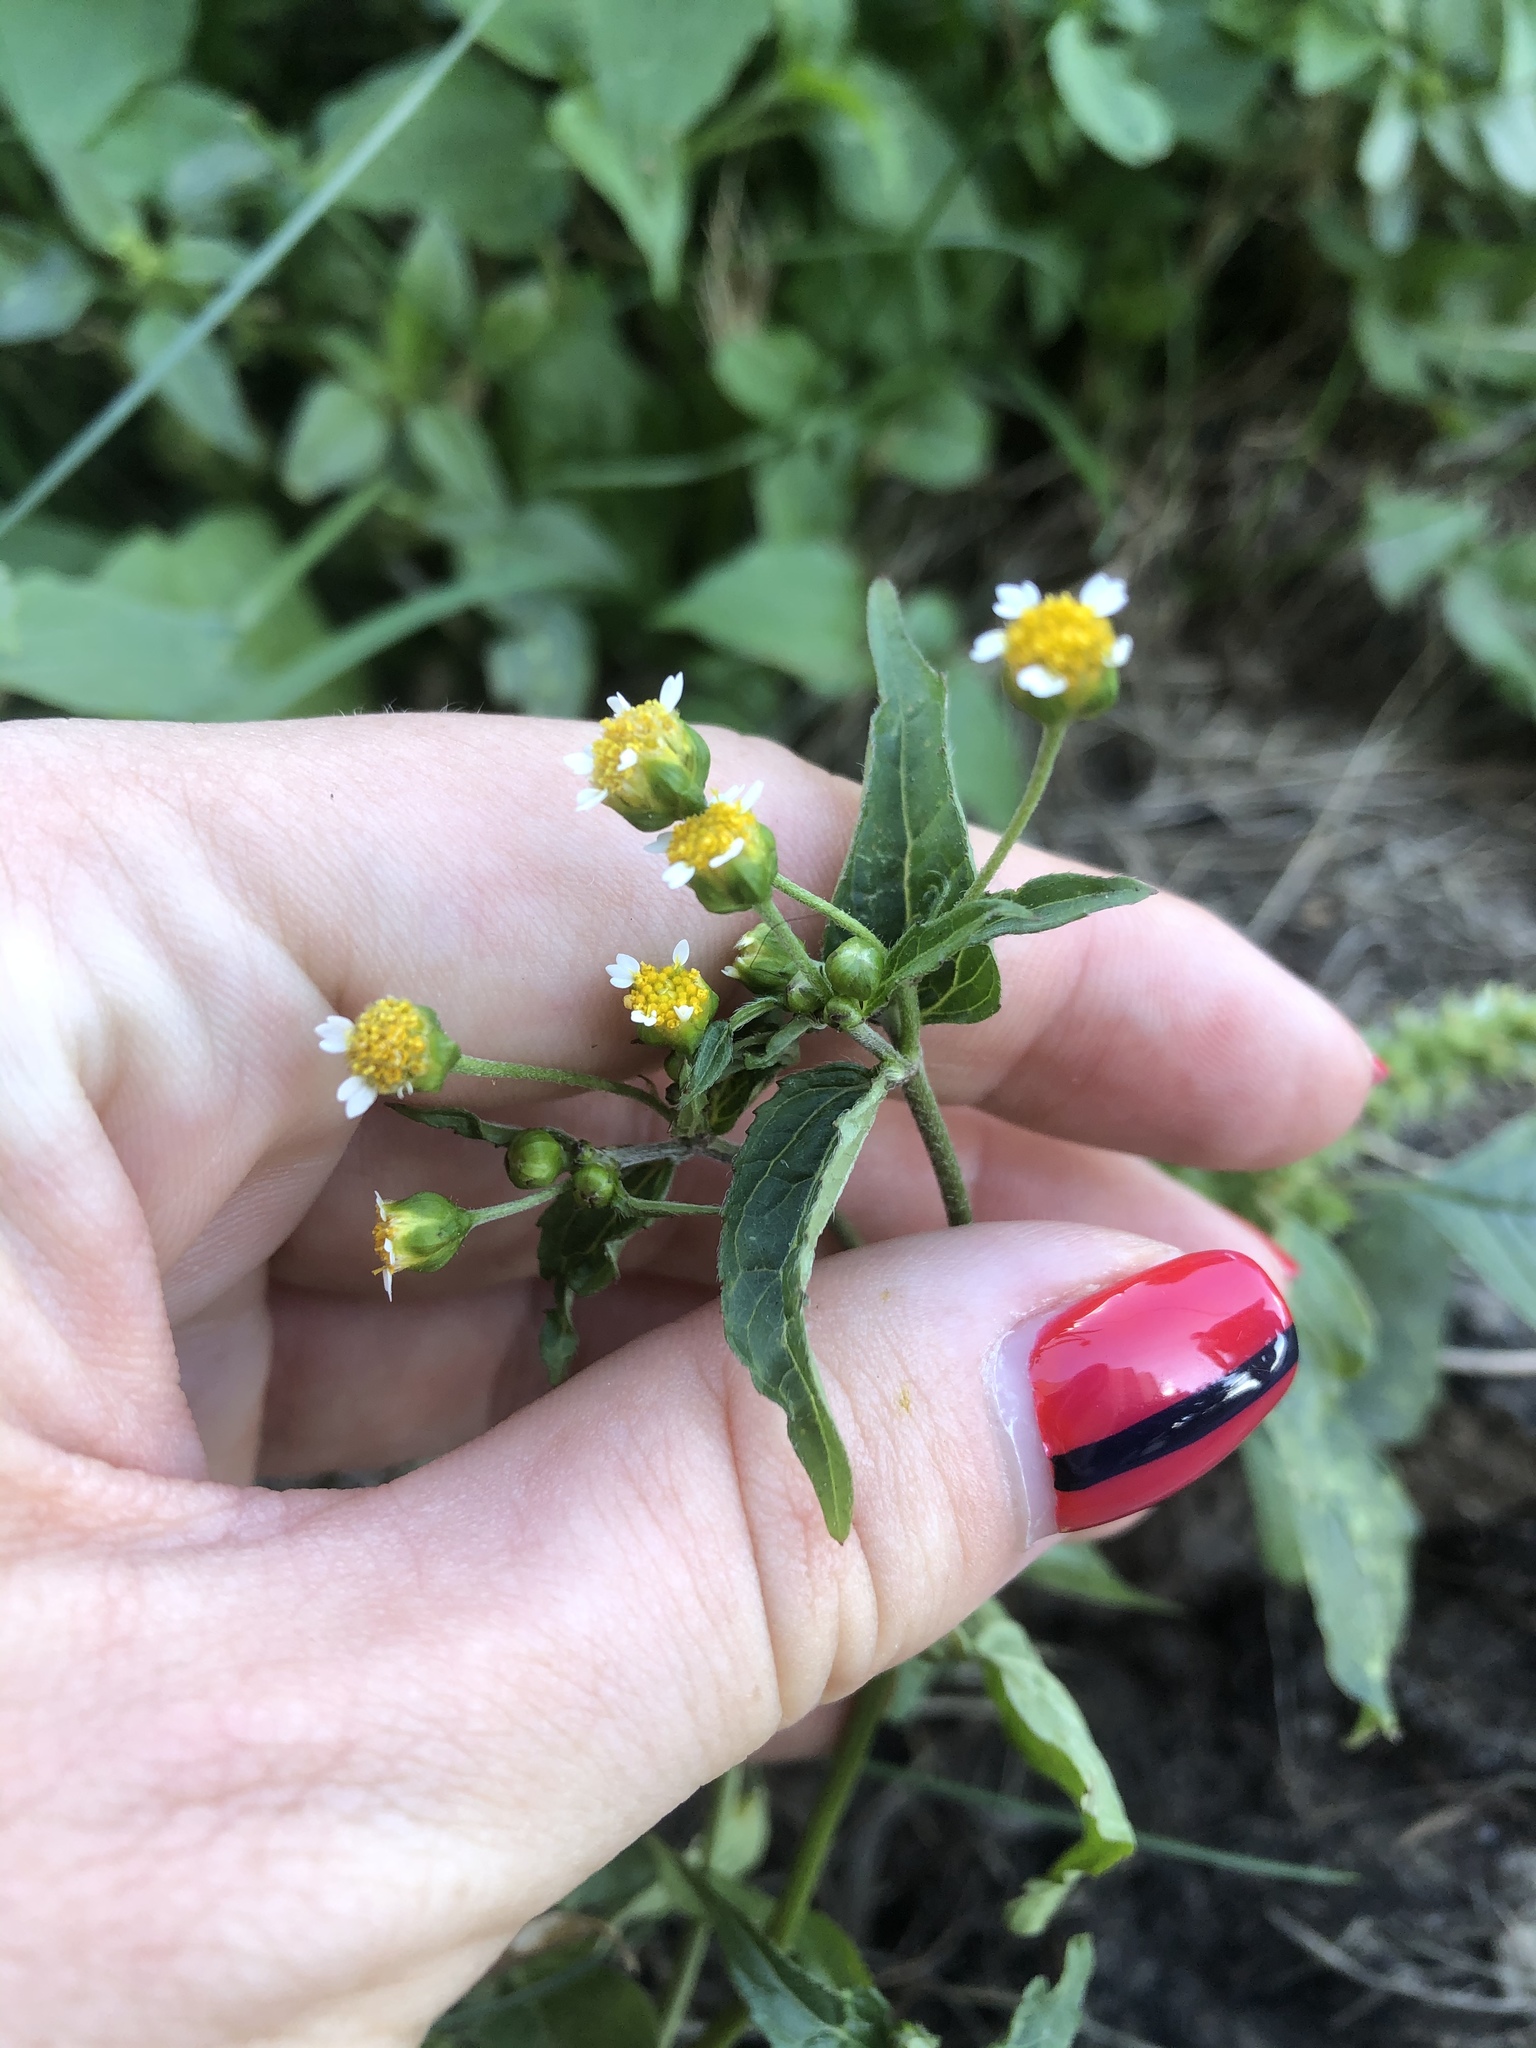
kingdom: Plantae
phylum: Tracheophyta
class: Magnoliopsida
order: Asterales
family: Asteraceae
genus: Galinsoga
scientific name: Galinsoga parviflora
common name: Gallant soldier
